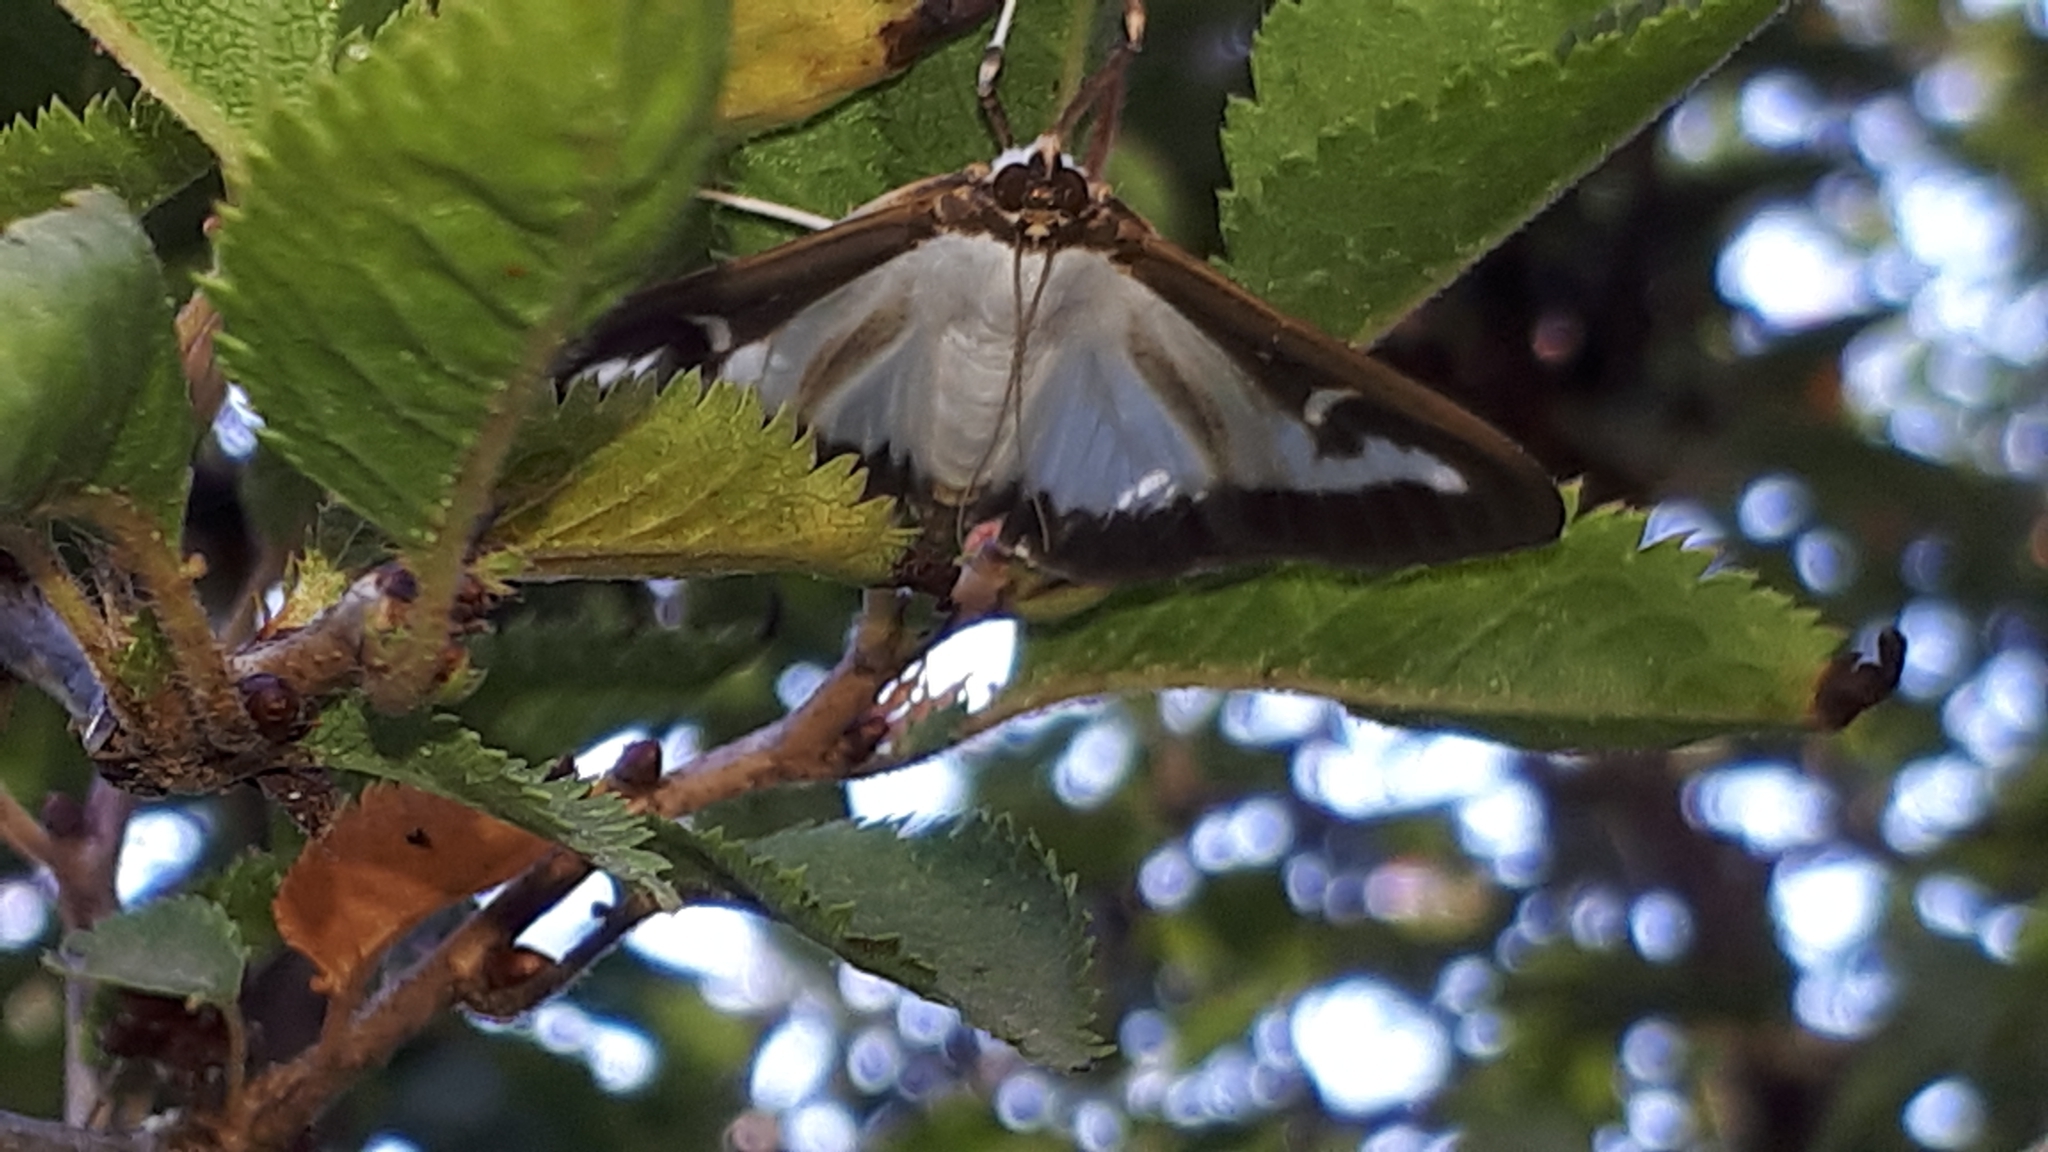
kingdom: Animalia
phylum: Arthropoda
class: Insecta
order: Lepidoptera
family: Crambidae
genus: Cydalima
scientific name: Cydalima perspectalis
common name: Box tree moth
